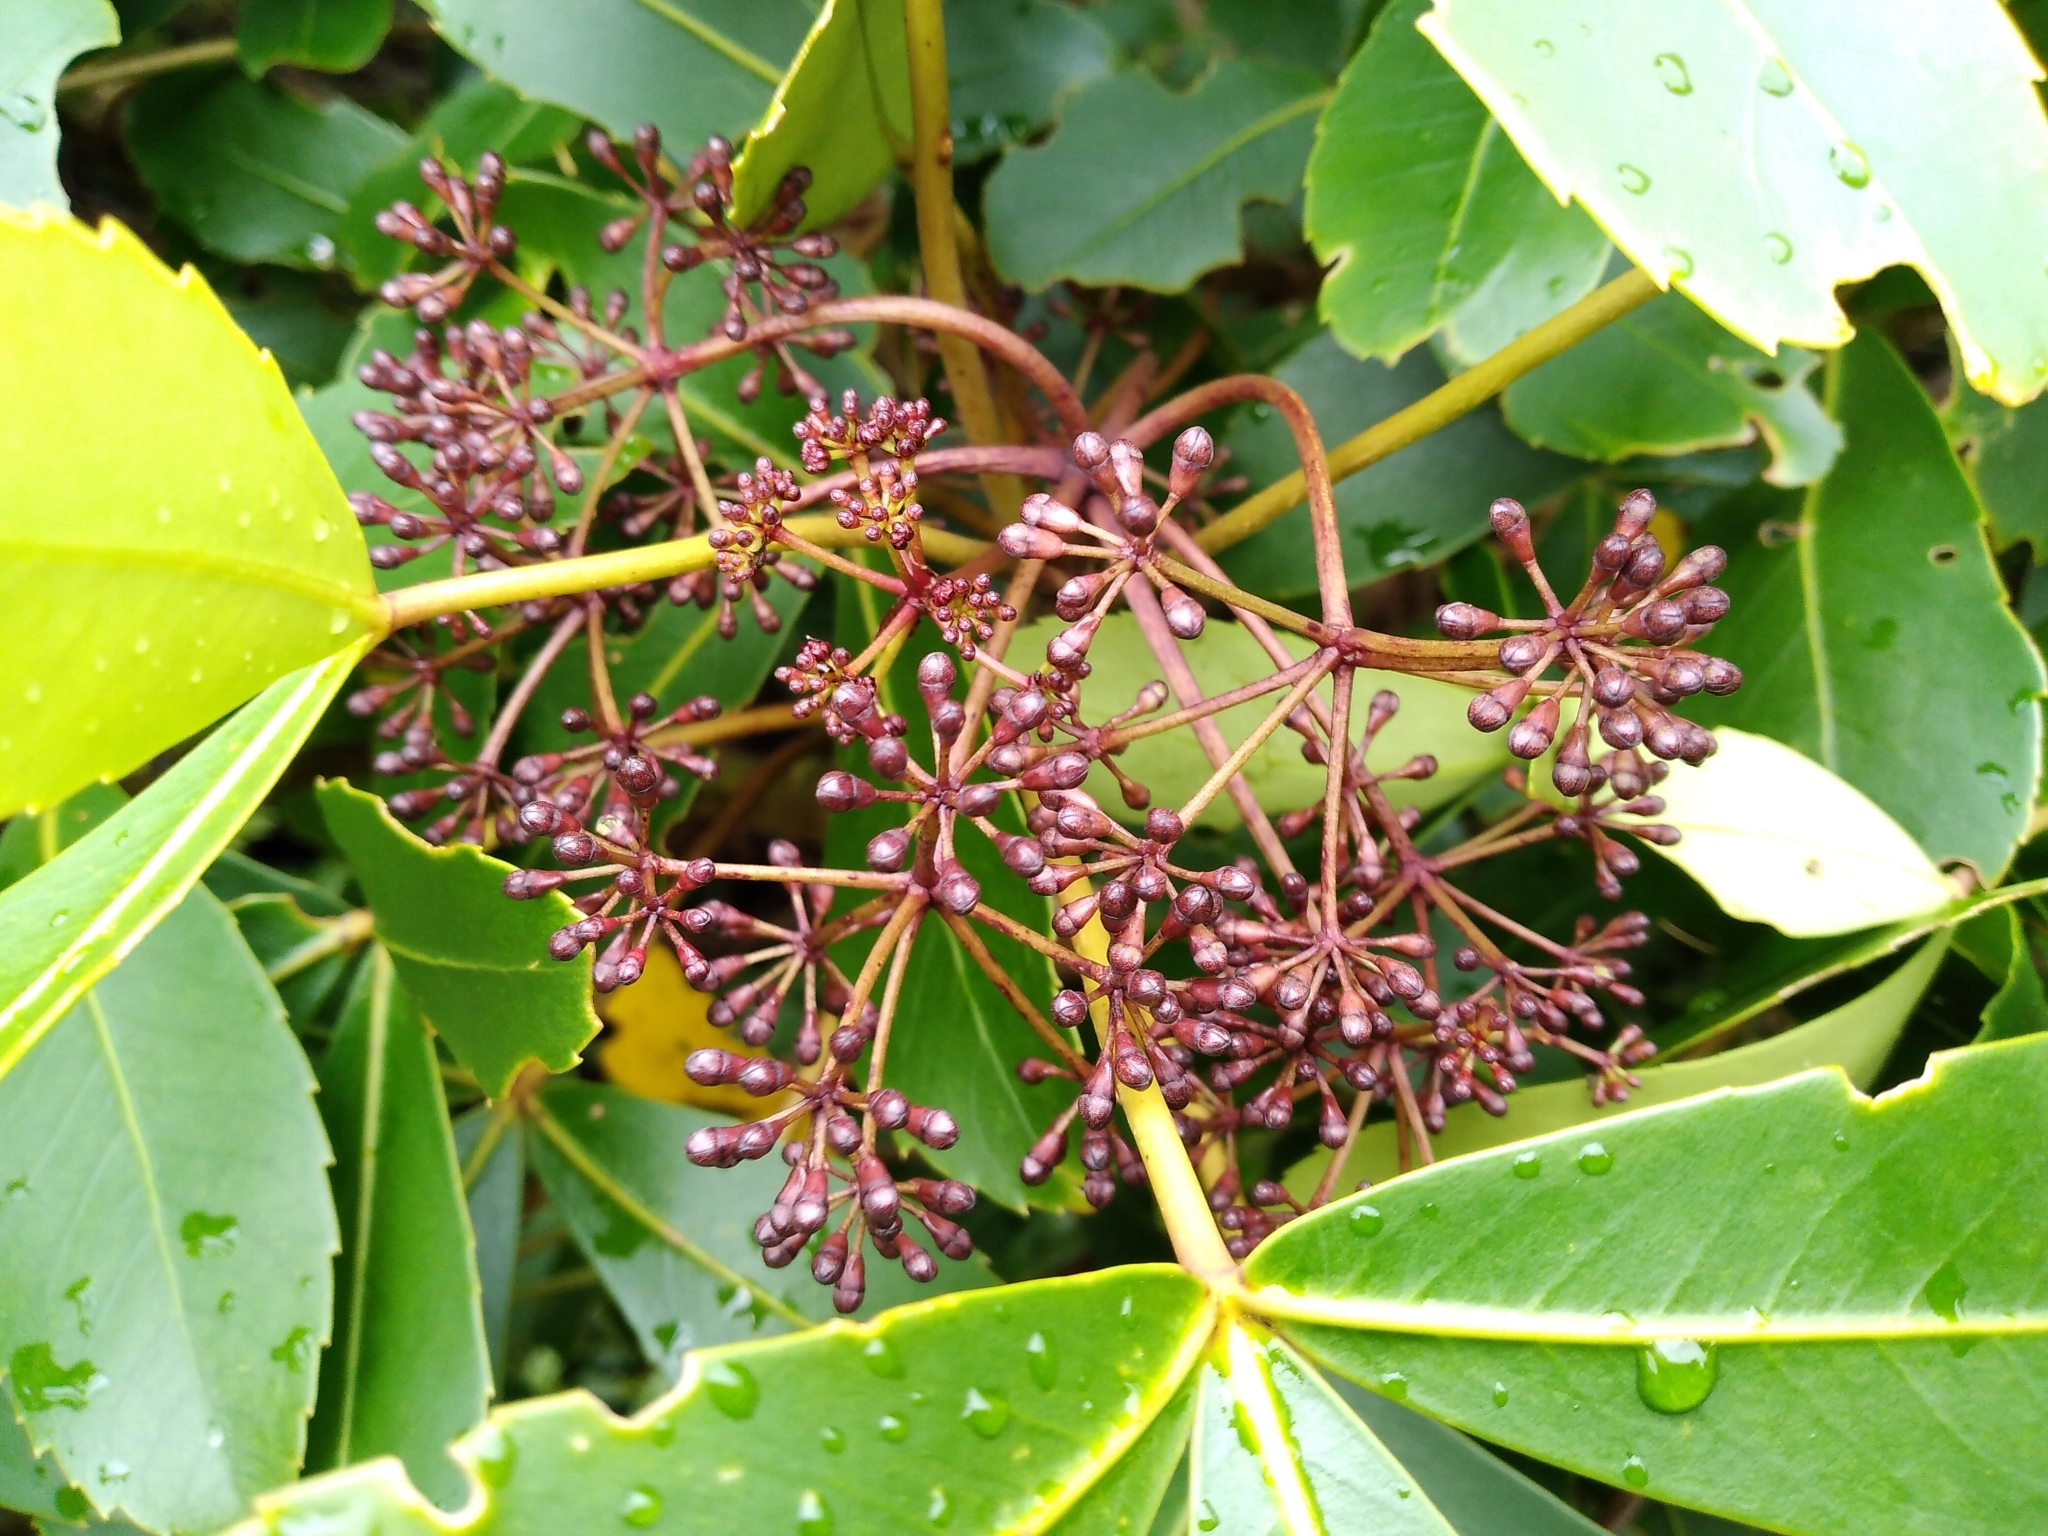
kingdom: Plantae
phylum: Tracheophyta
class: Magnoliopsida
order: Apiales
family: Araliaceae
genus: Neopanax
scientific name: Neopanax colensoi
